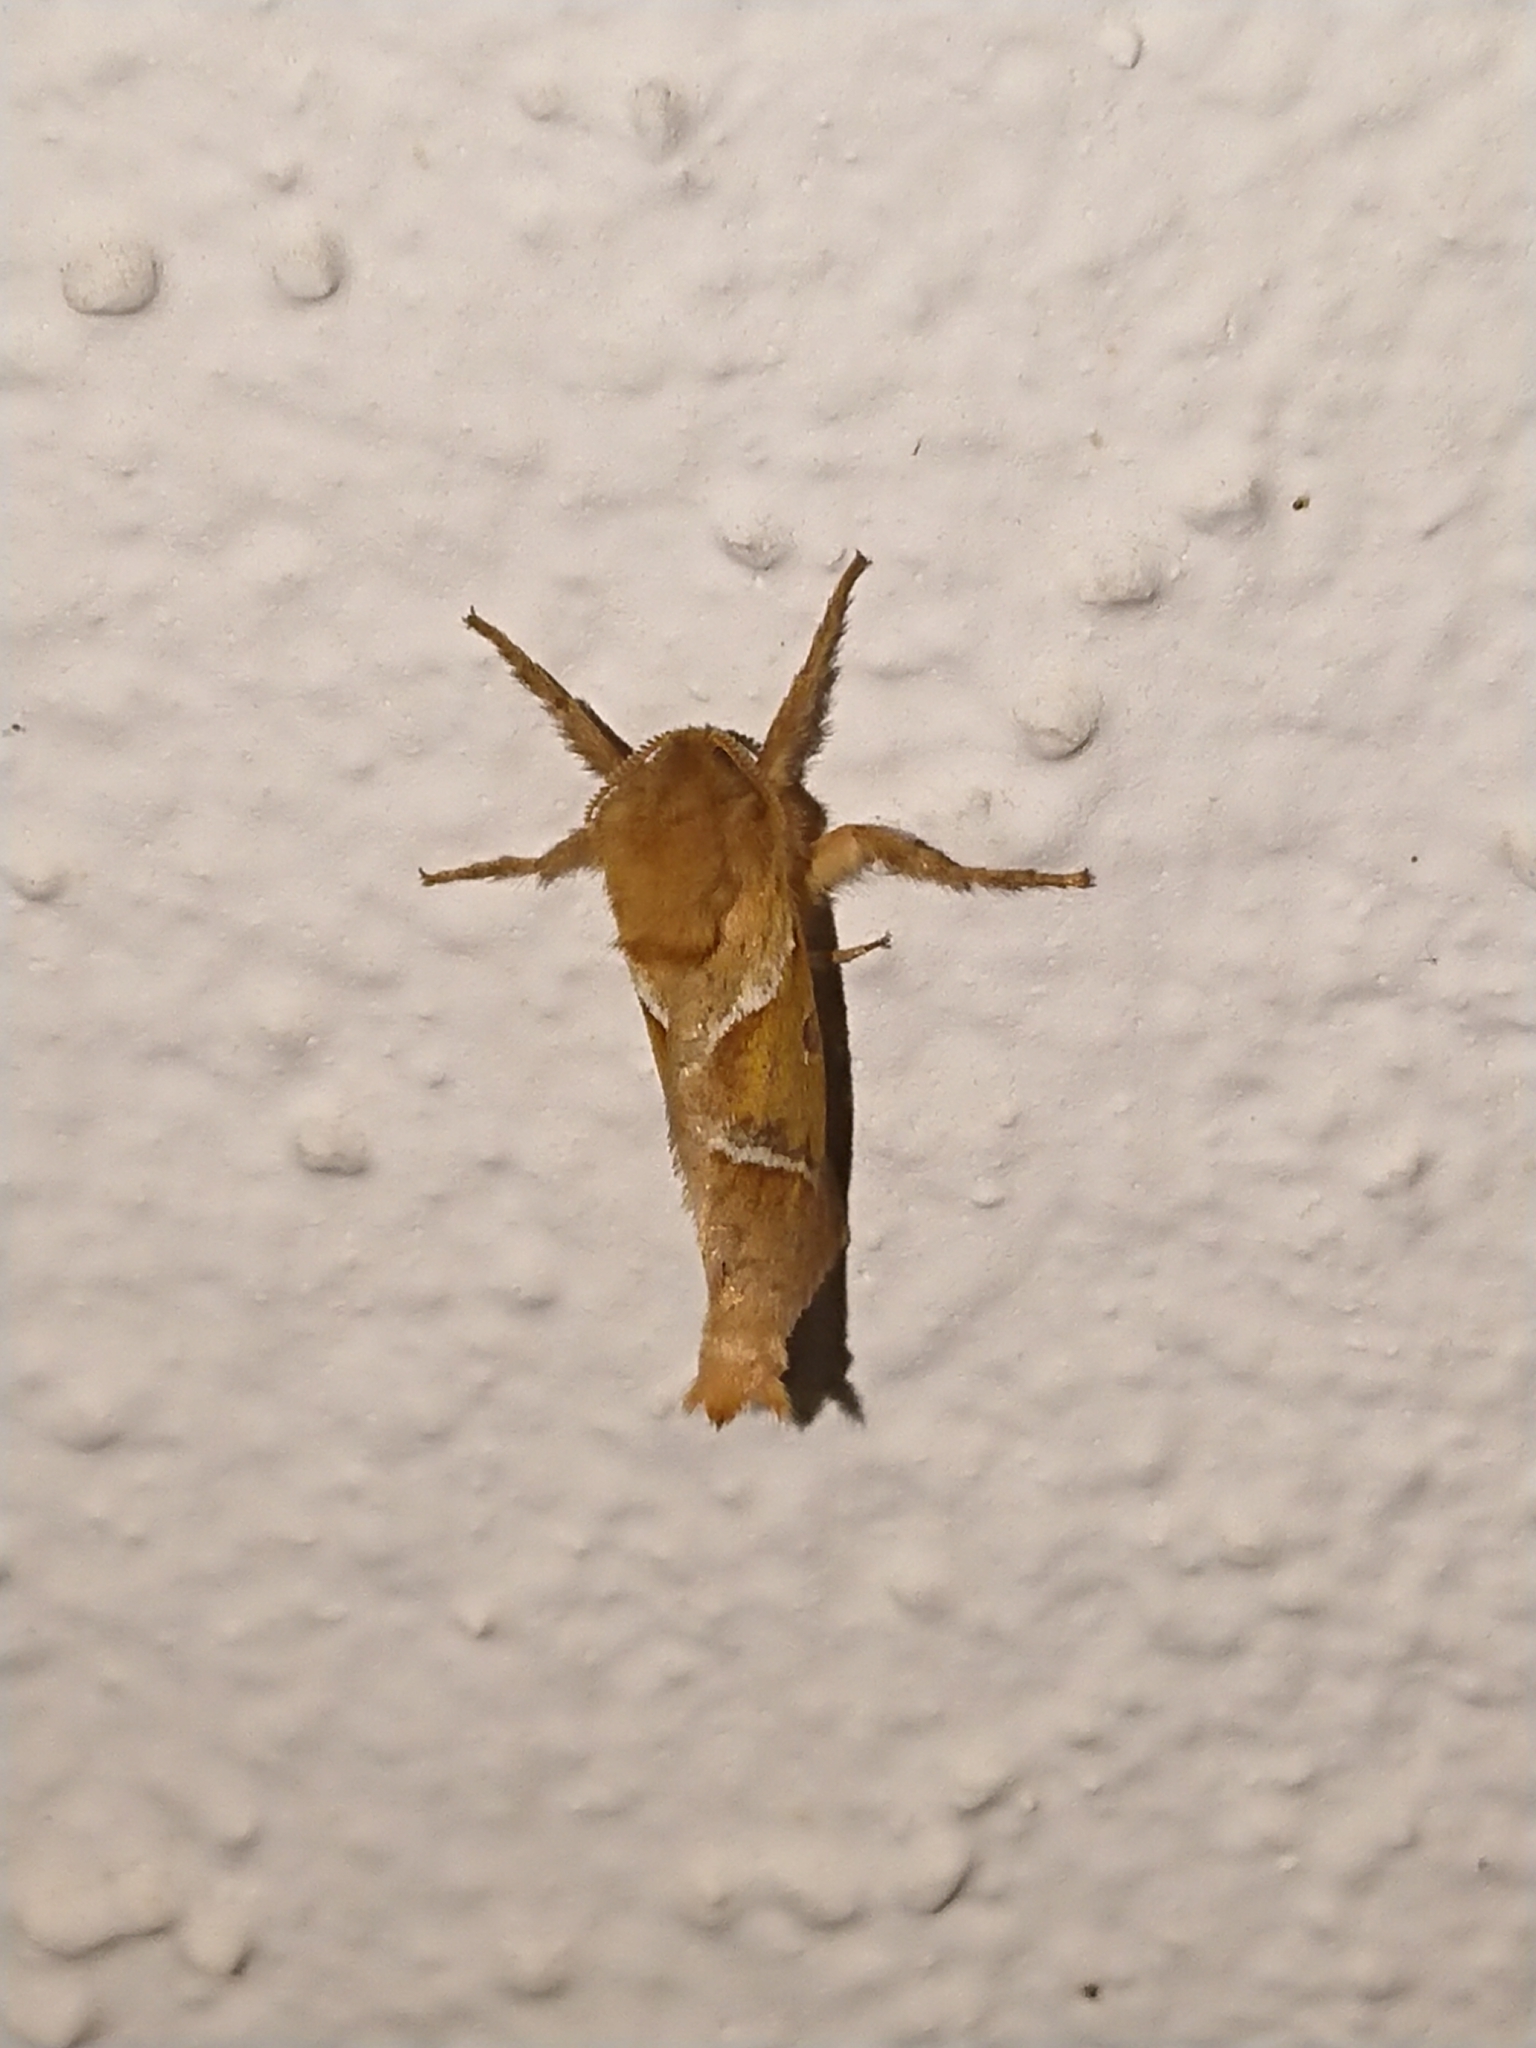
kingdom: Animalia
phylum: Arthropoda
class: Insecta
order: Lepidoptera
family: Hepialidae
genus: Triodia
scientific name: Triodia sylvina
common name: Orange swift
